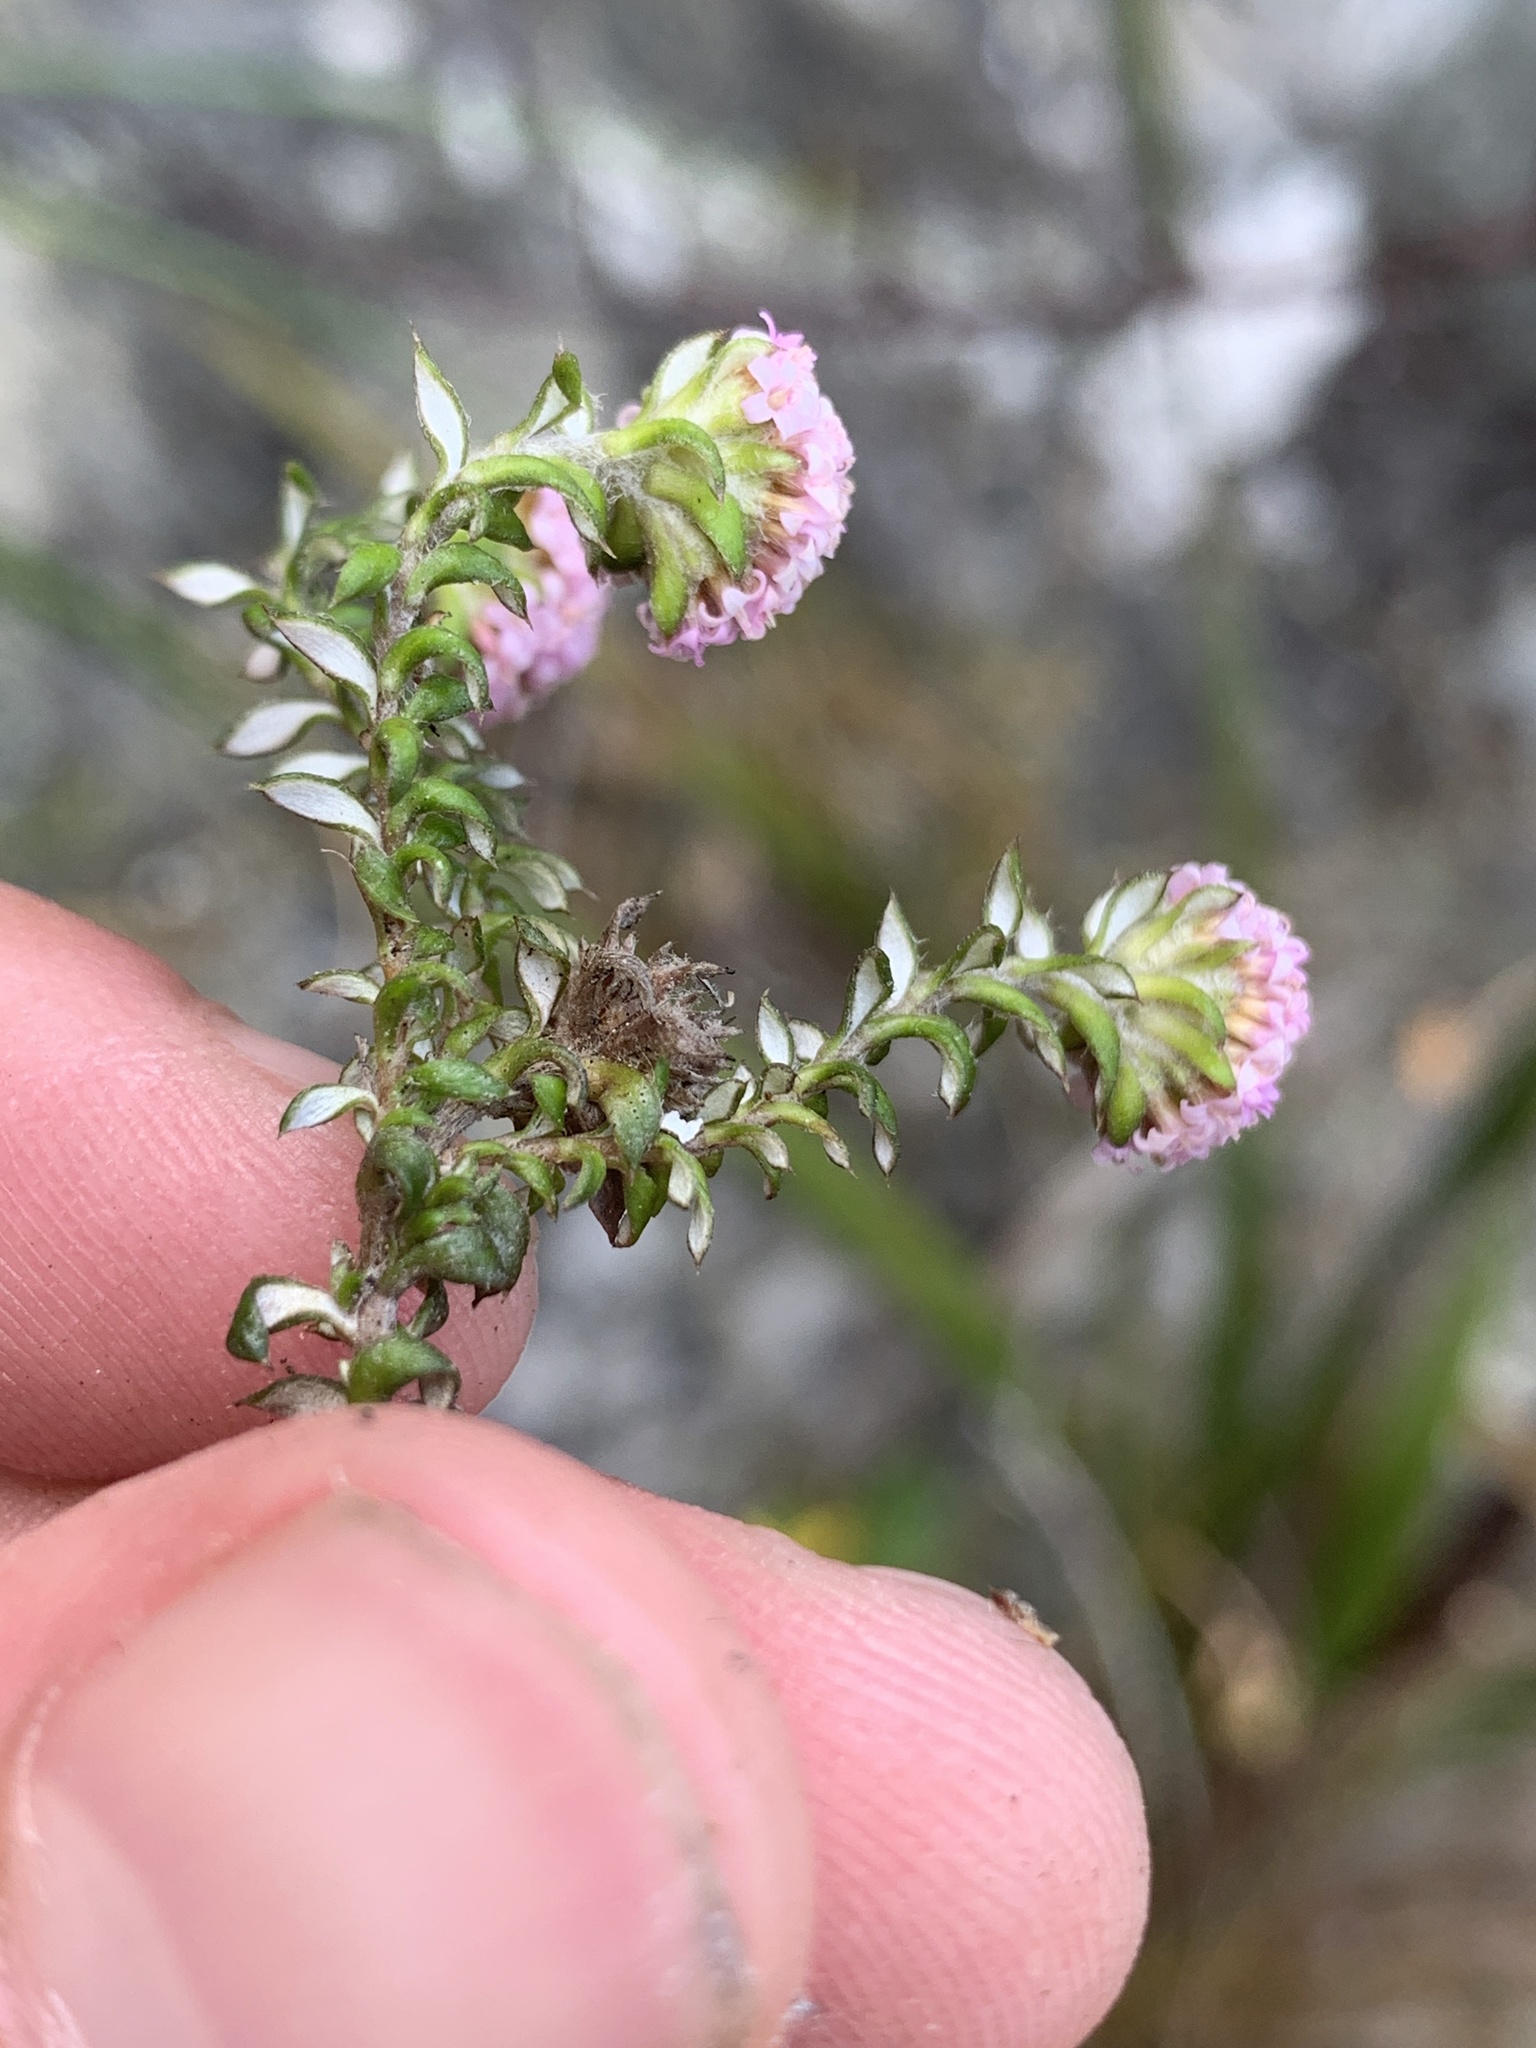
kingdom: Plantae
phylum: Tracheophyta
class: Magnoliopsida
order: Asterales
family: Asteraceae
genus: Stoebe
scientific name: Stoebe prostrata
